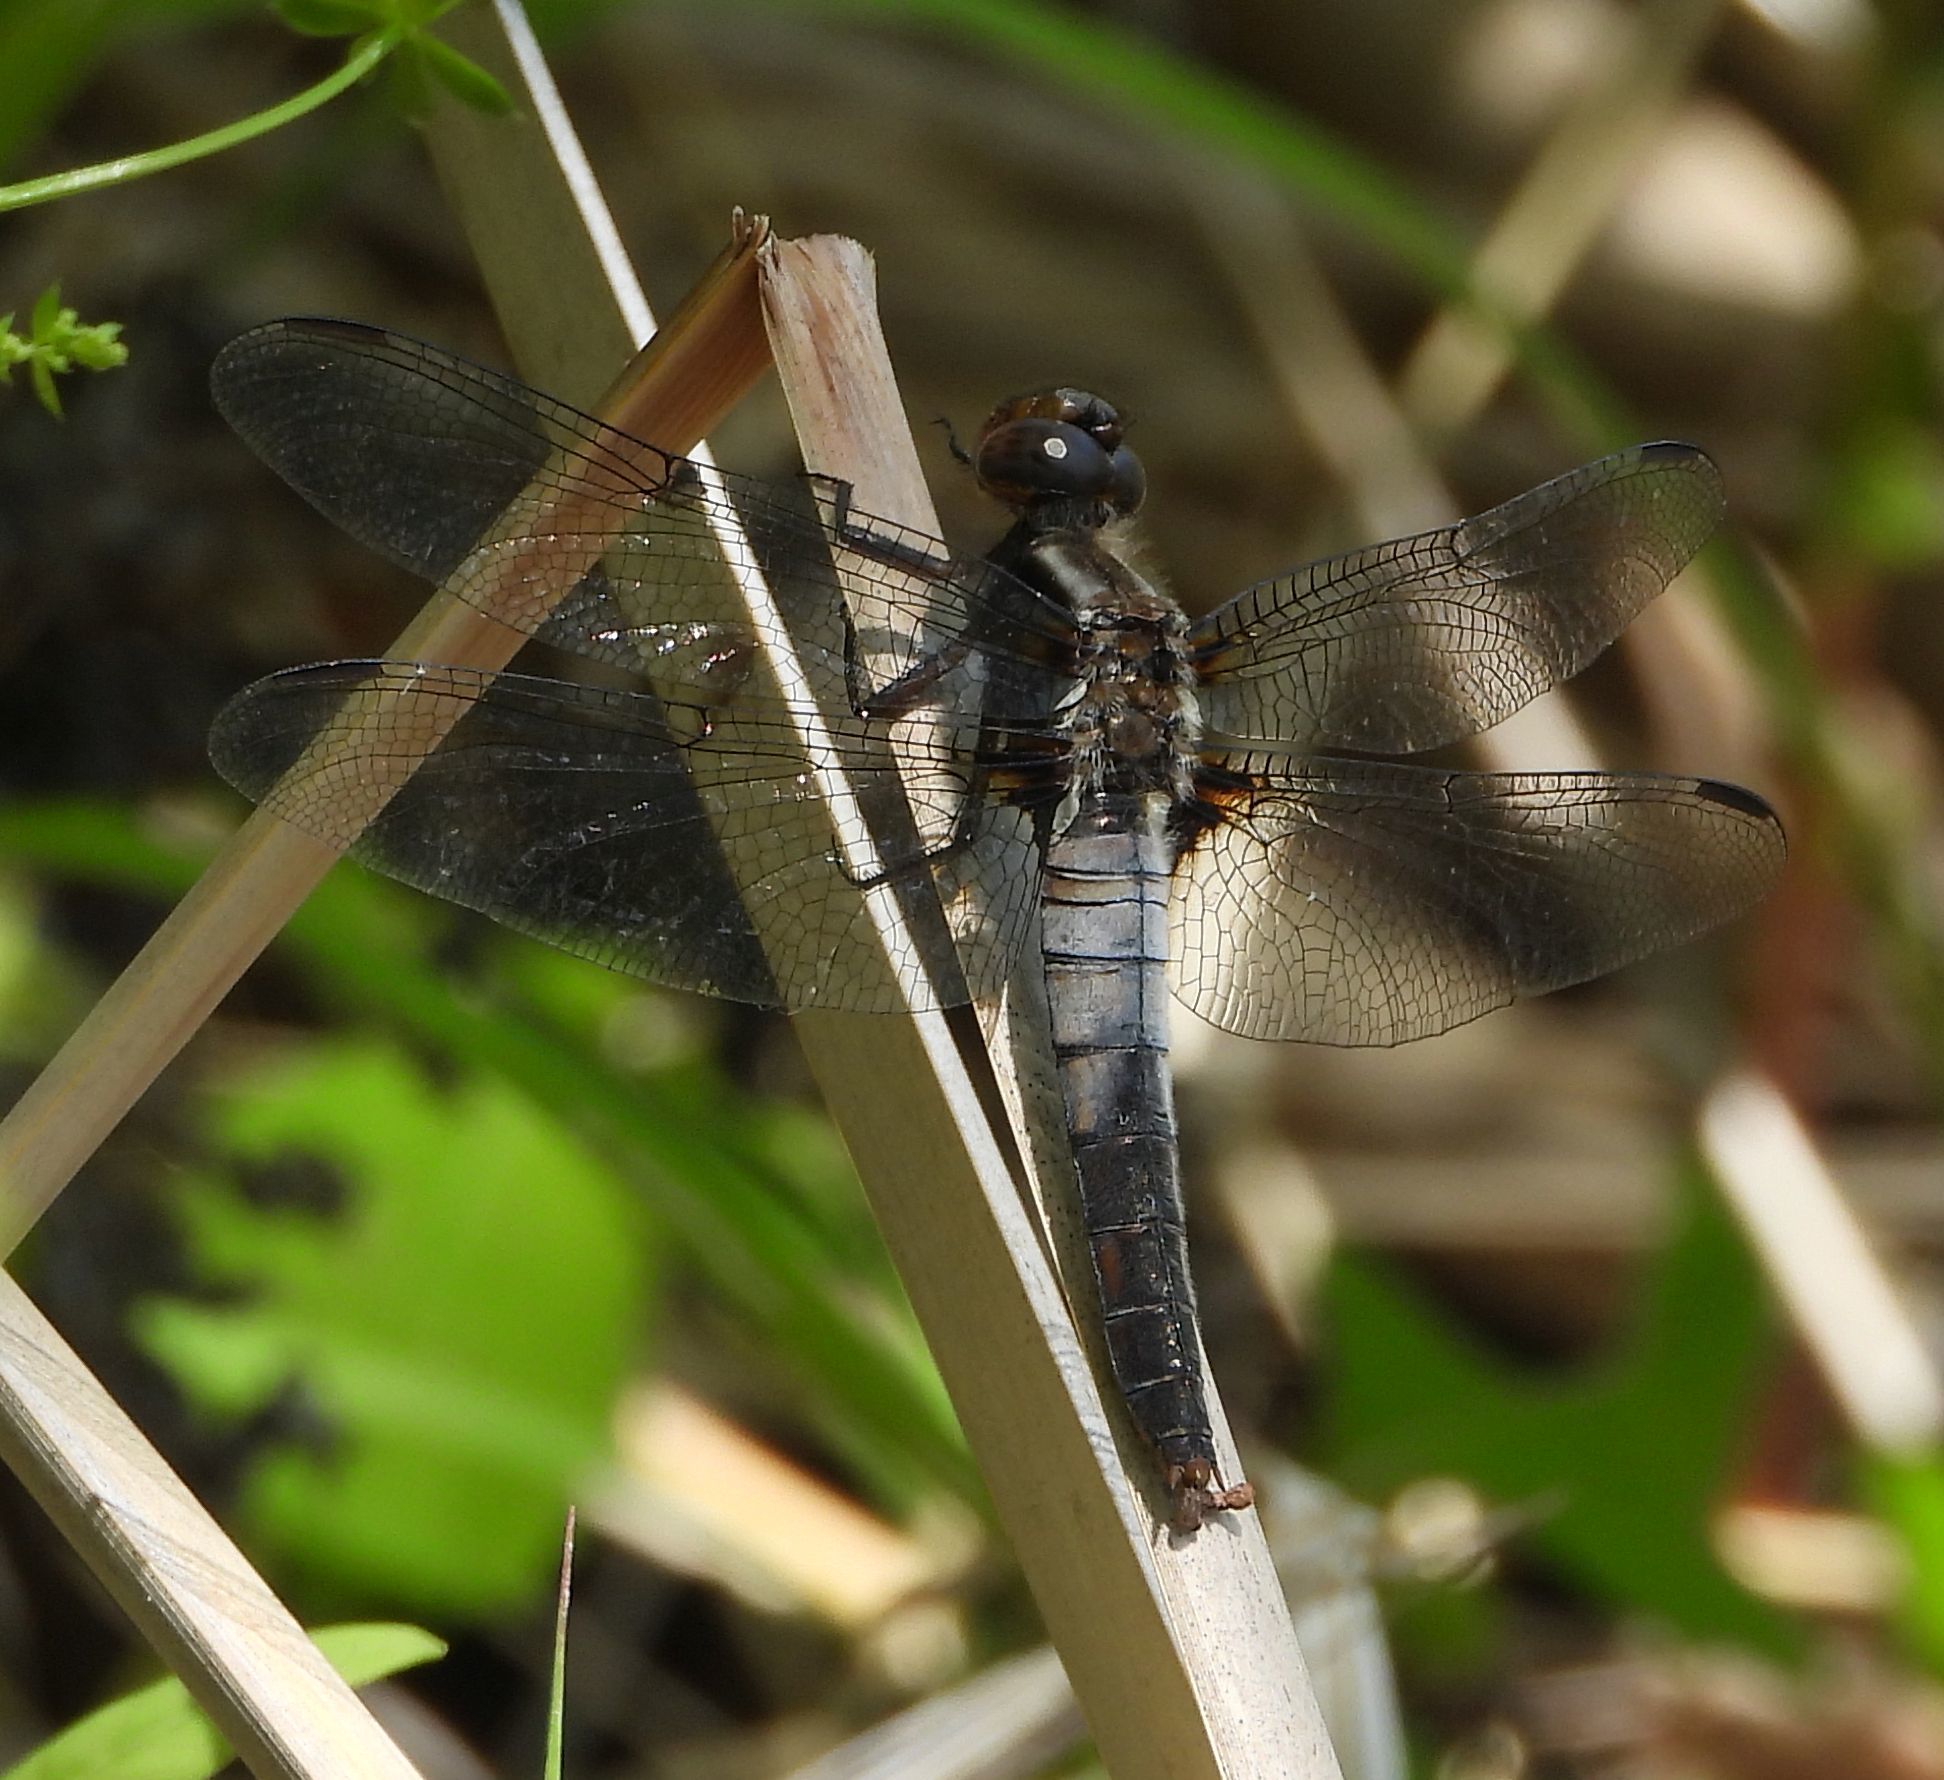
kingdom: Animalia
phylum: Arthropoda
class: Insecta
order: Odonata
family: Libellulidae
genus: Ladona
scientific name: Ladona julia
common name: Chalk-fronted corporal
